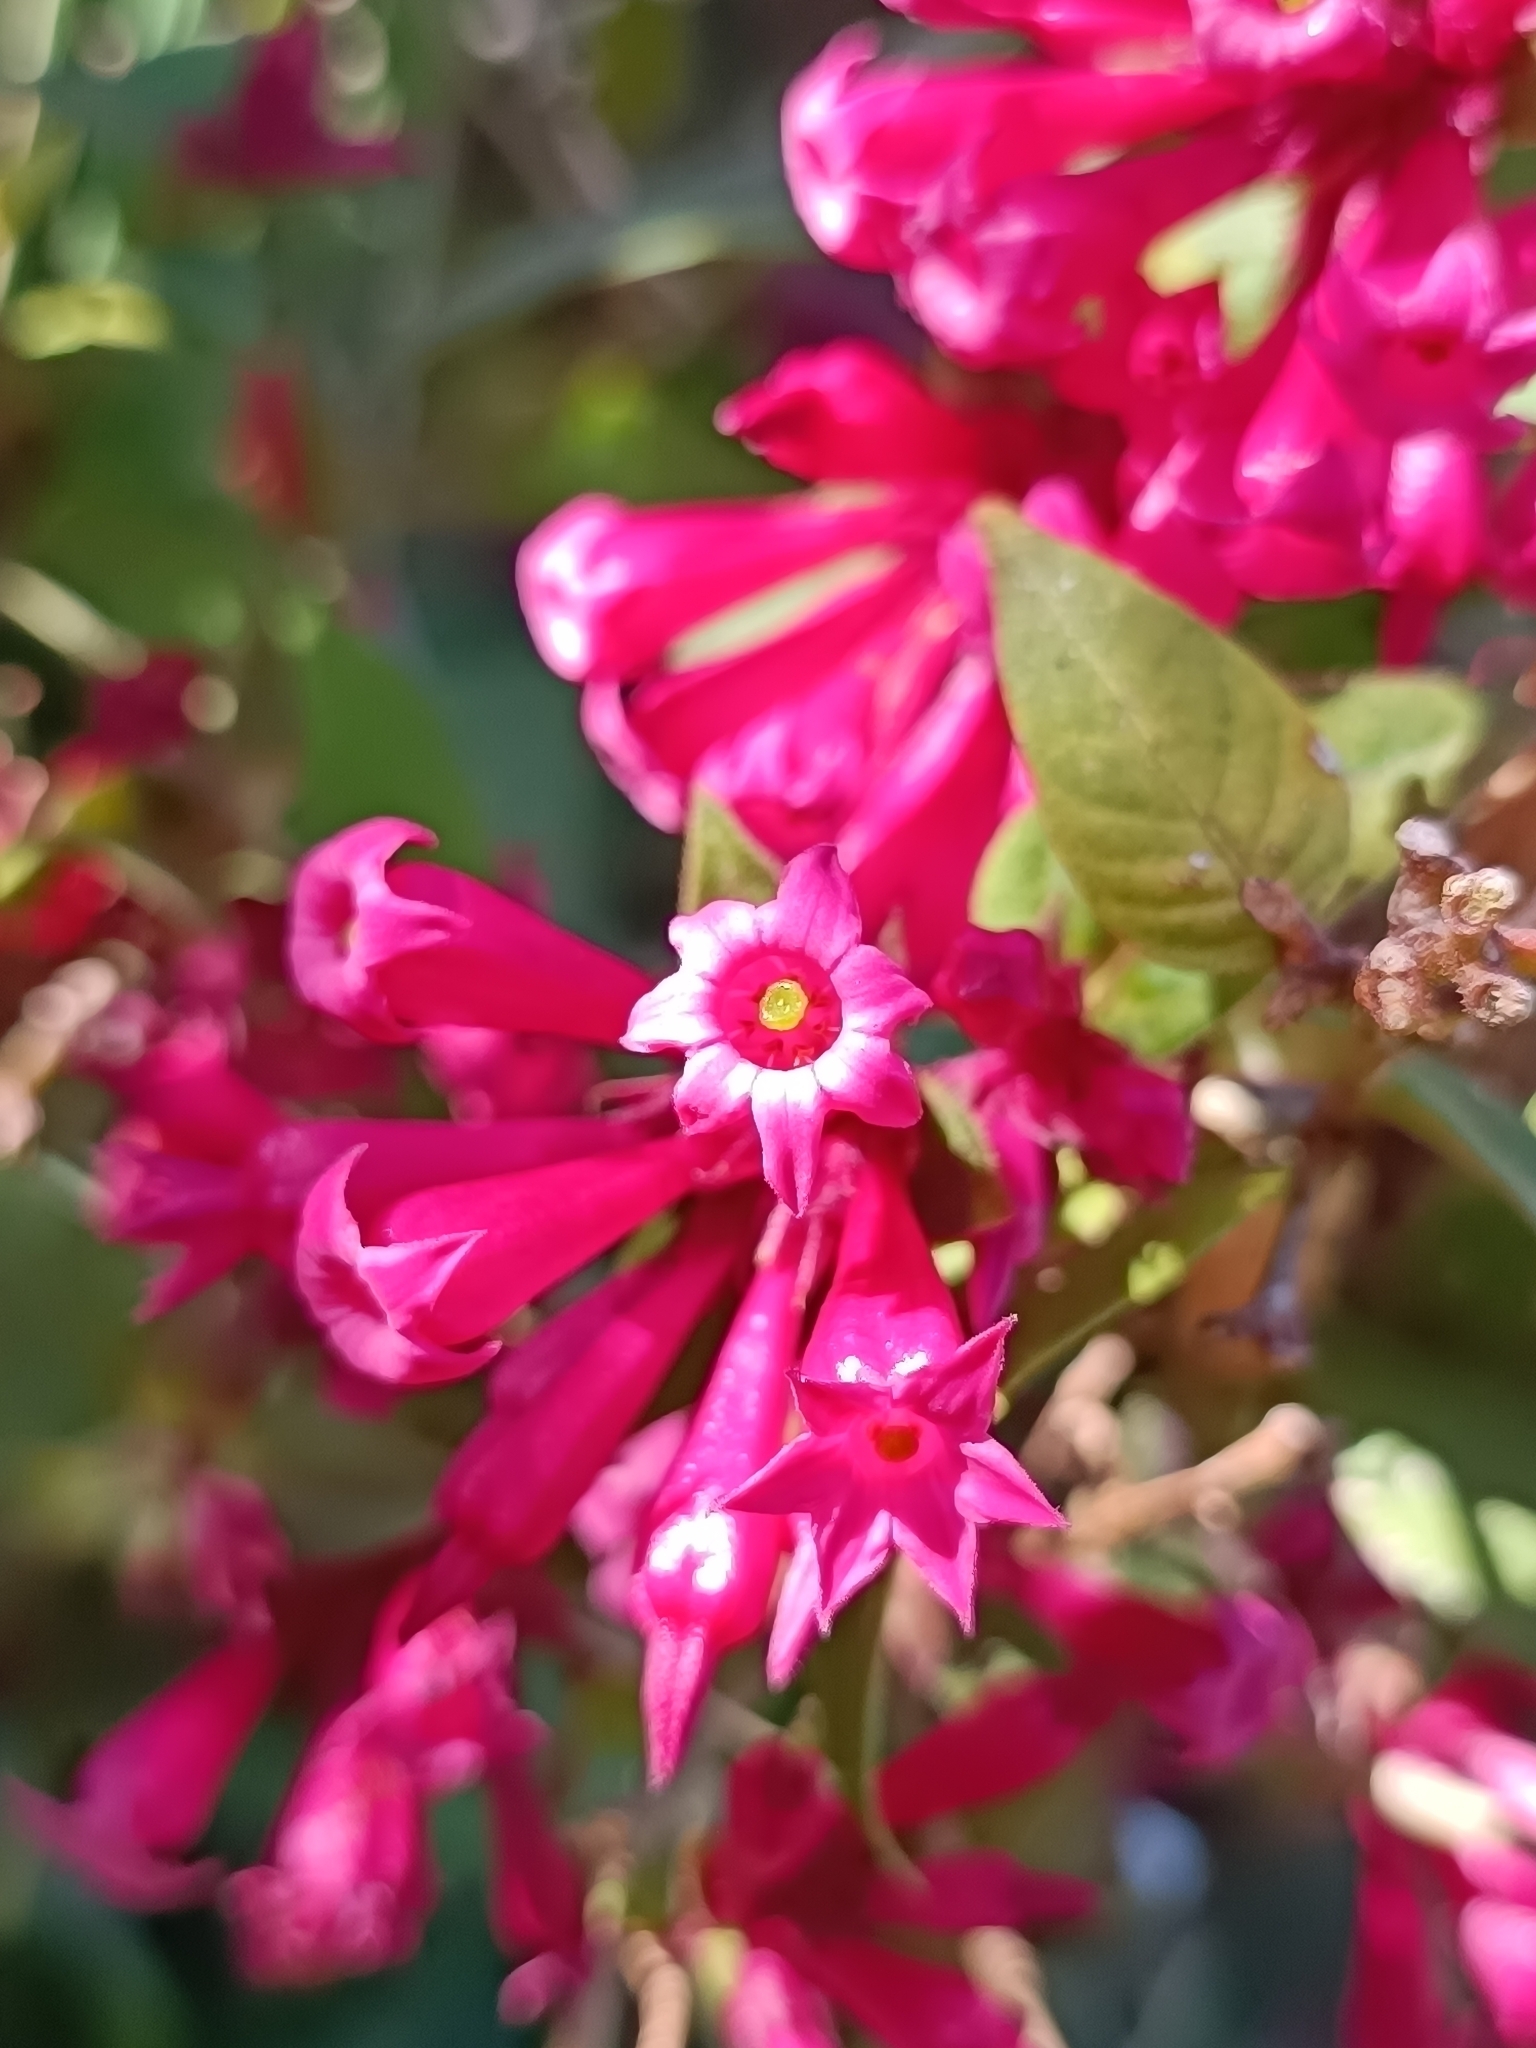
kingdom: Plantae
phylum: Tracheophyta
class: Magnoliopsida
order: Solanales
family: Solanaceae
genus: Cestrum
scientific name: Cestrum elegans
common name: Crimson cestrum
